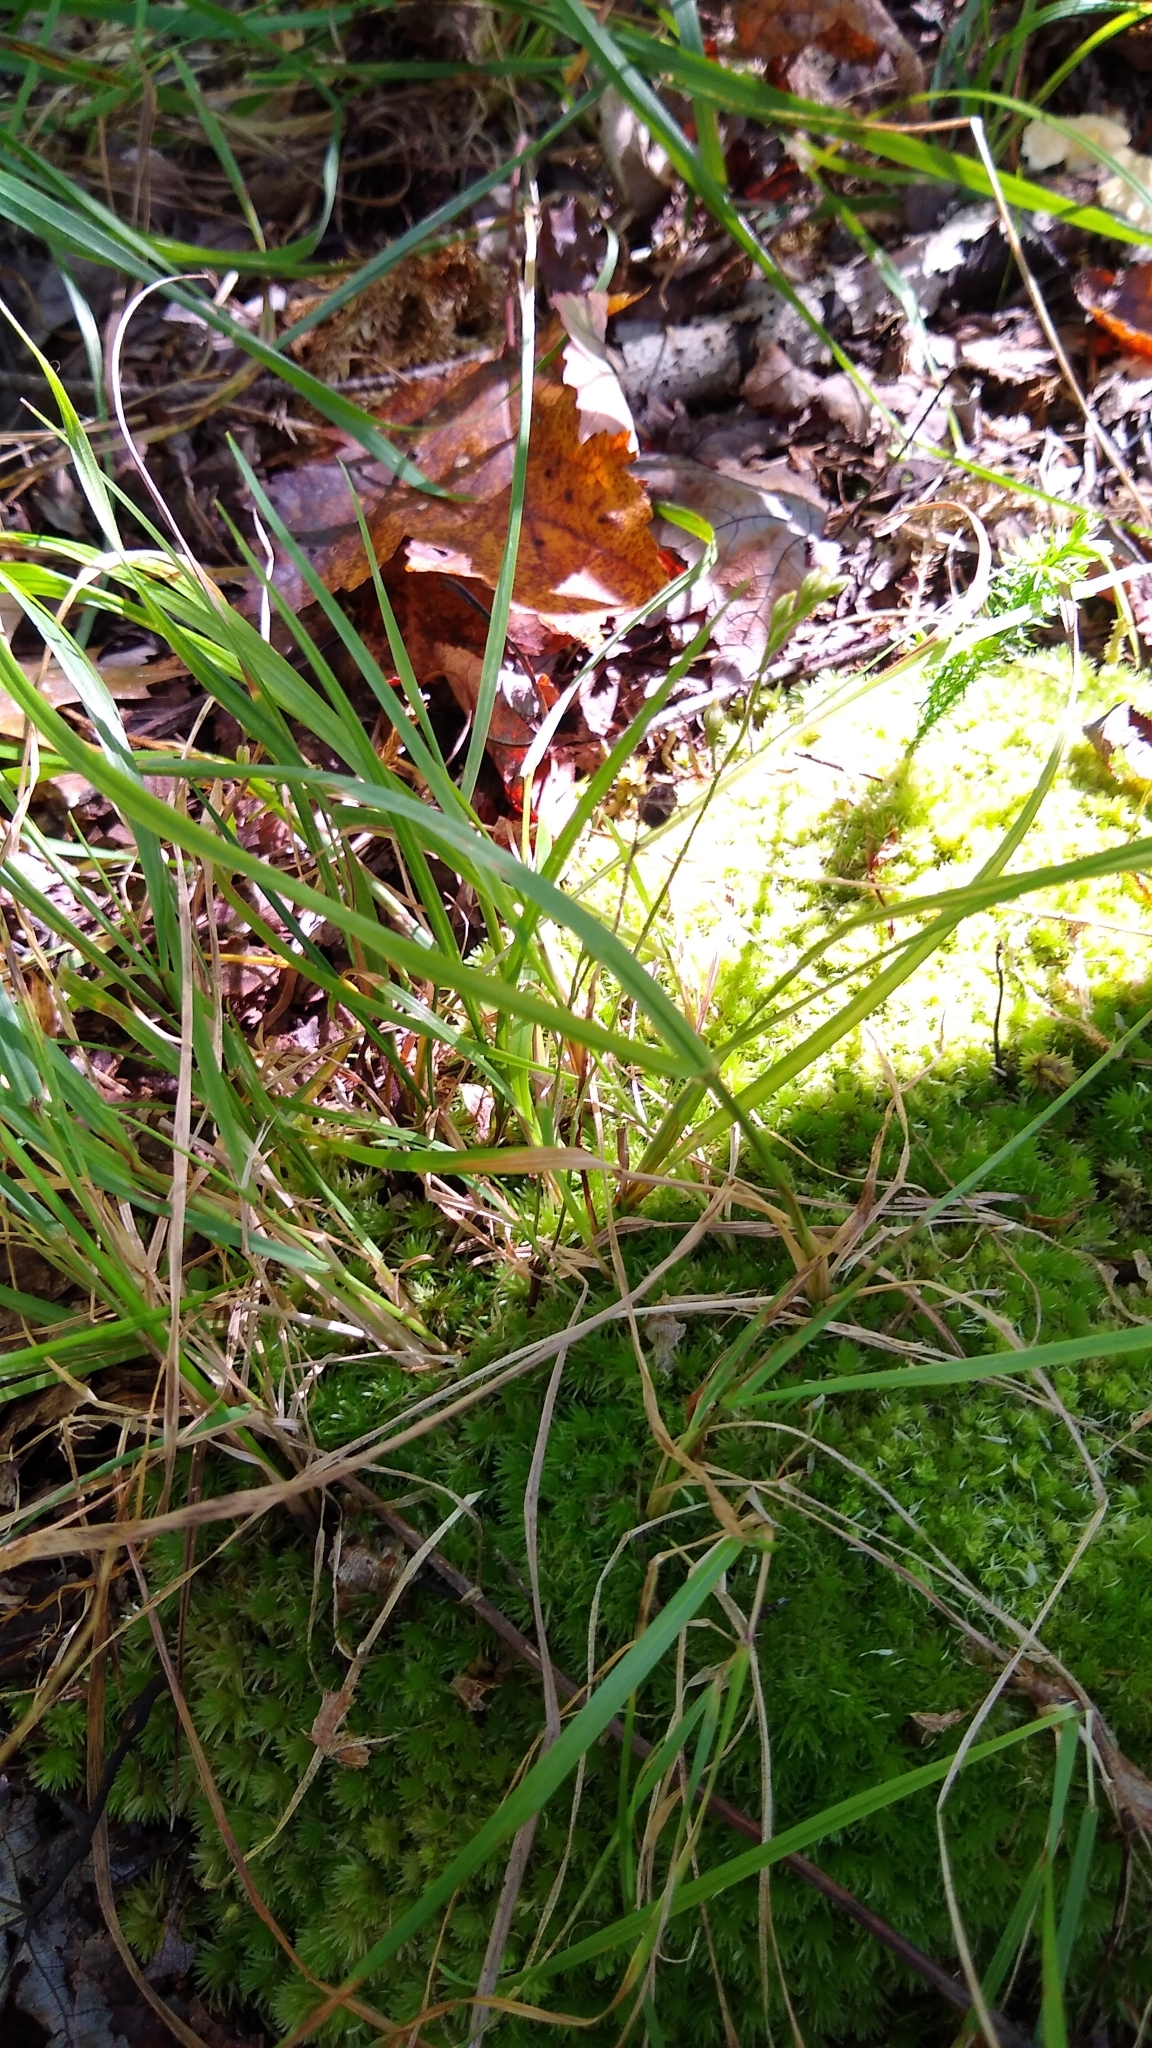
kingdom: Plantae
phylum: Tracheophyta
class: Magnoliopsida
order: Gentianales
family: Gentianaceae
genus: Bartonia
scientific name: Bartonia virginica
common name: Yellow bartonia
